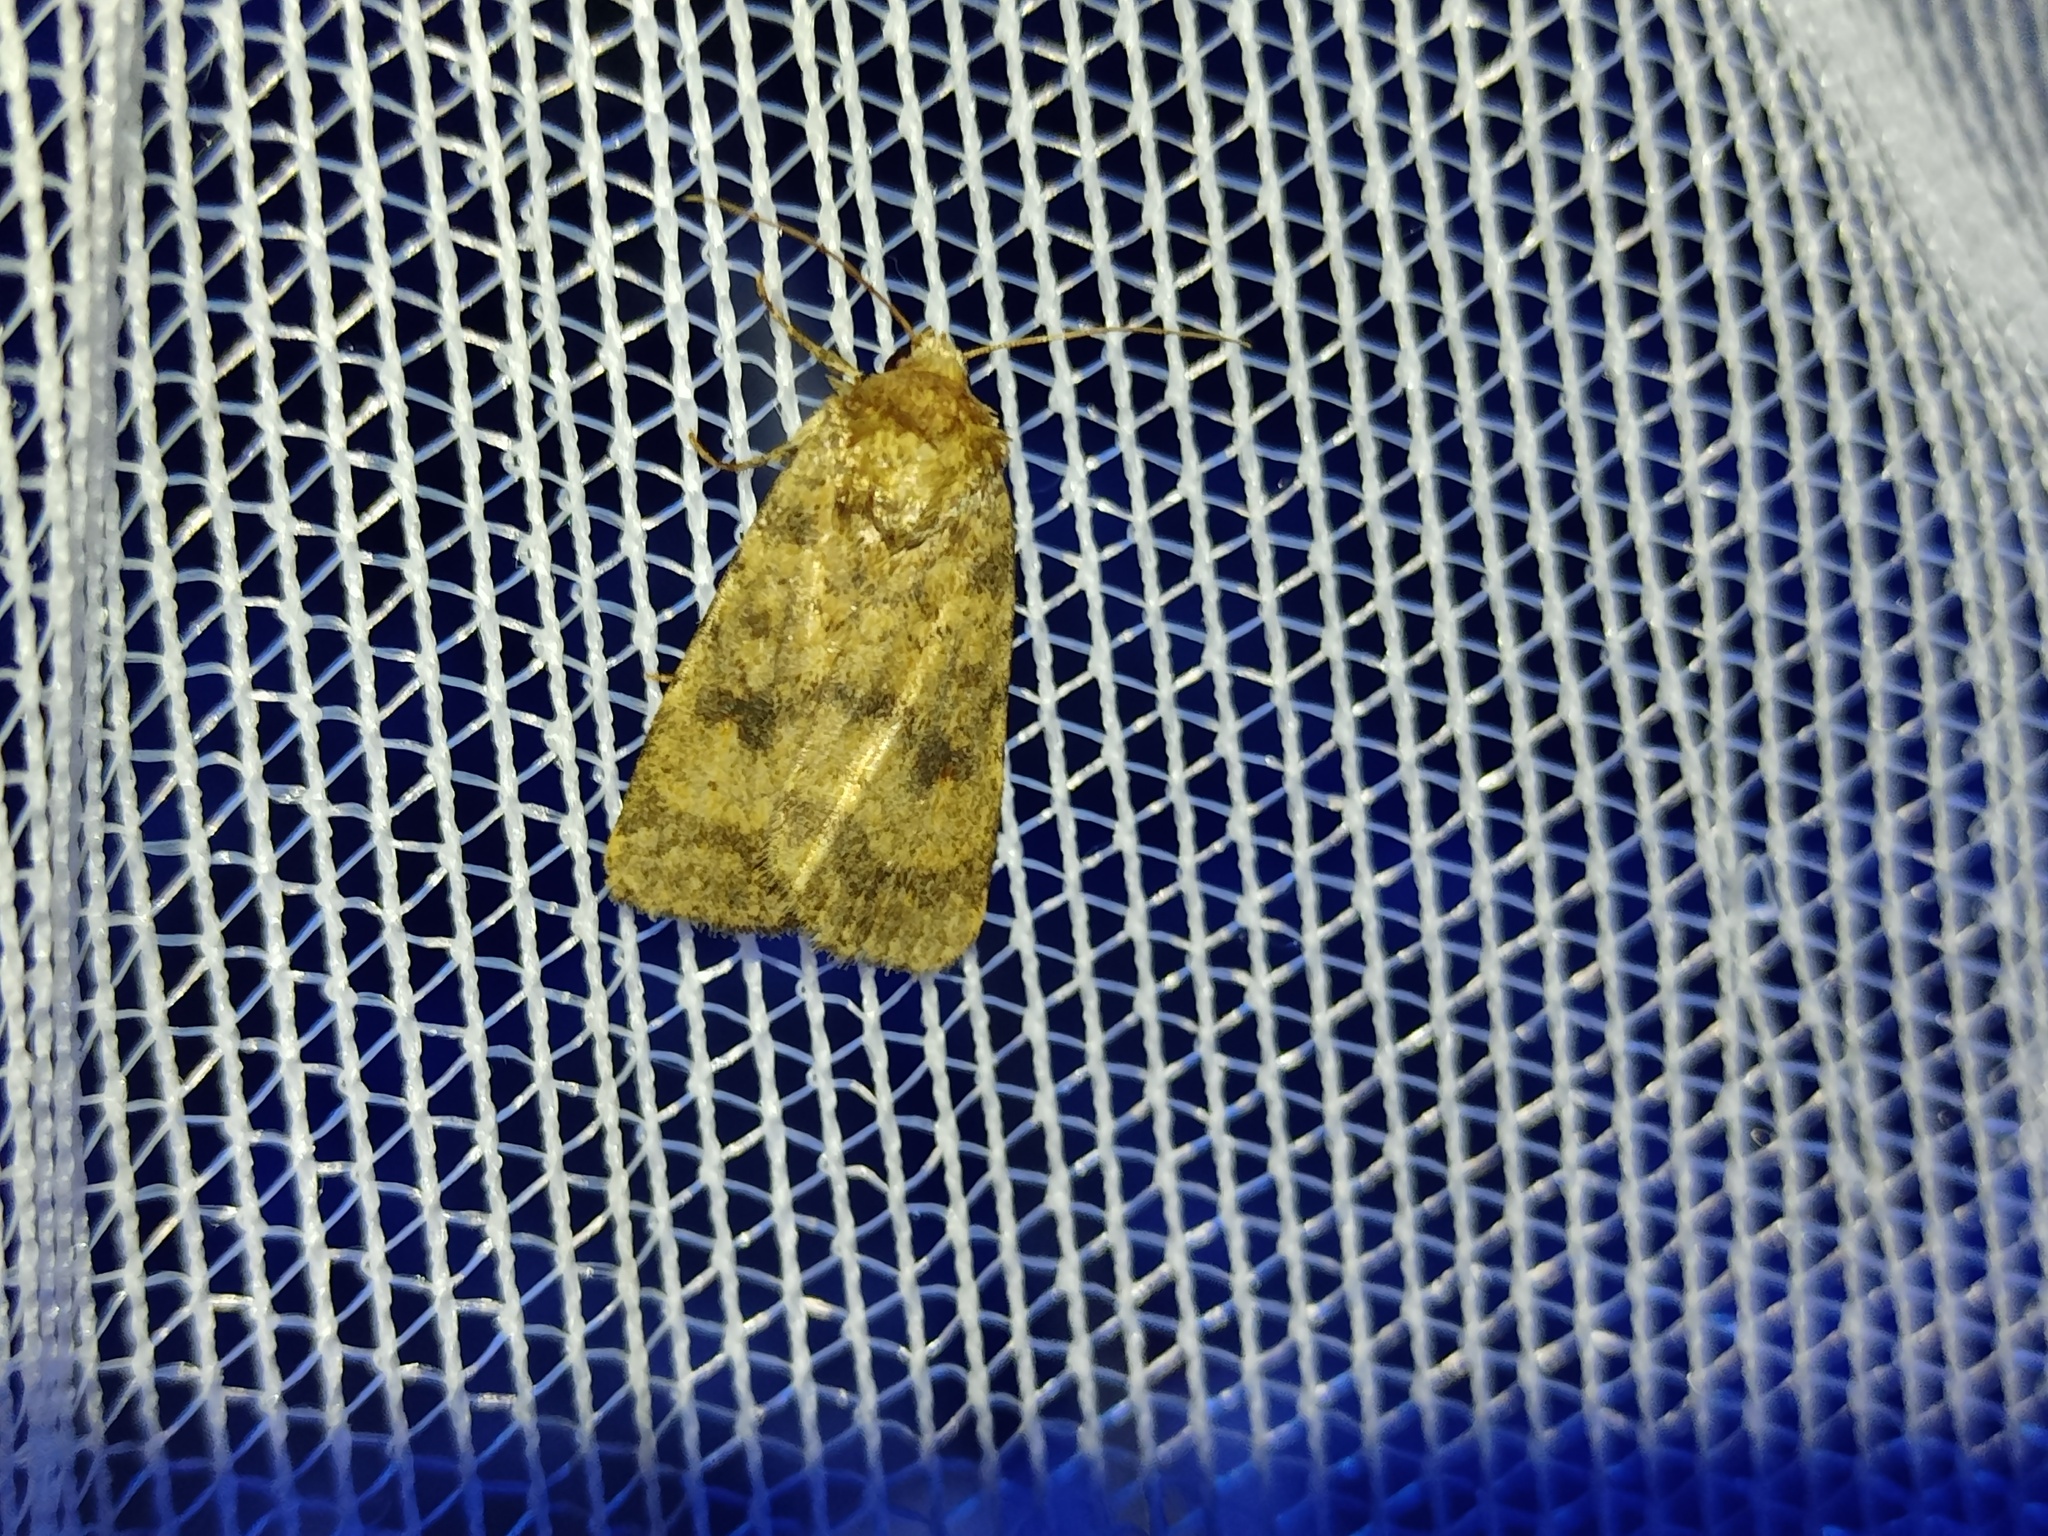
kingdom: Animalia
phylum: Arthropoda
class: Insecta
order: Lepidoptera
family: Noctuidae
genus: Caradrina
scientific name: Caradrina morpheus
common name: Mottled rustic
